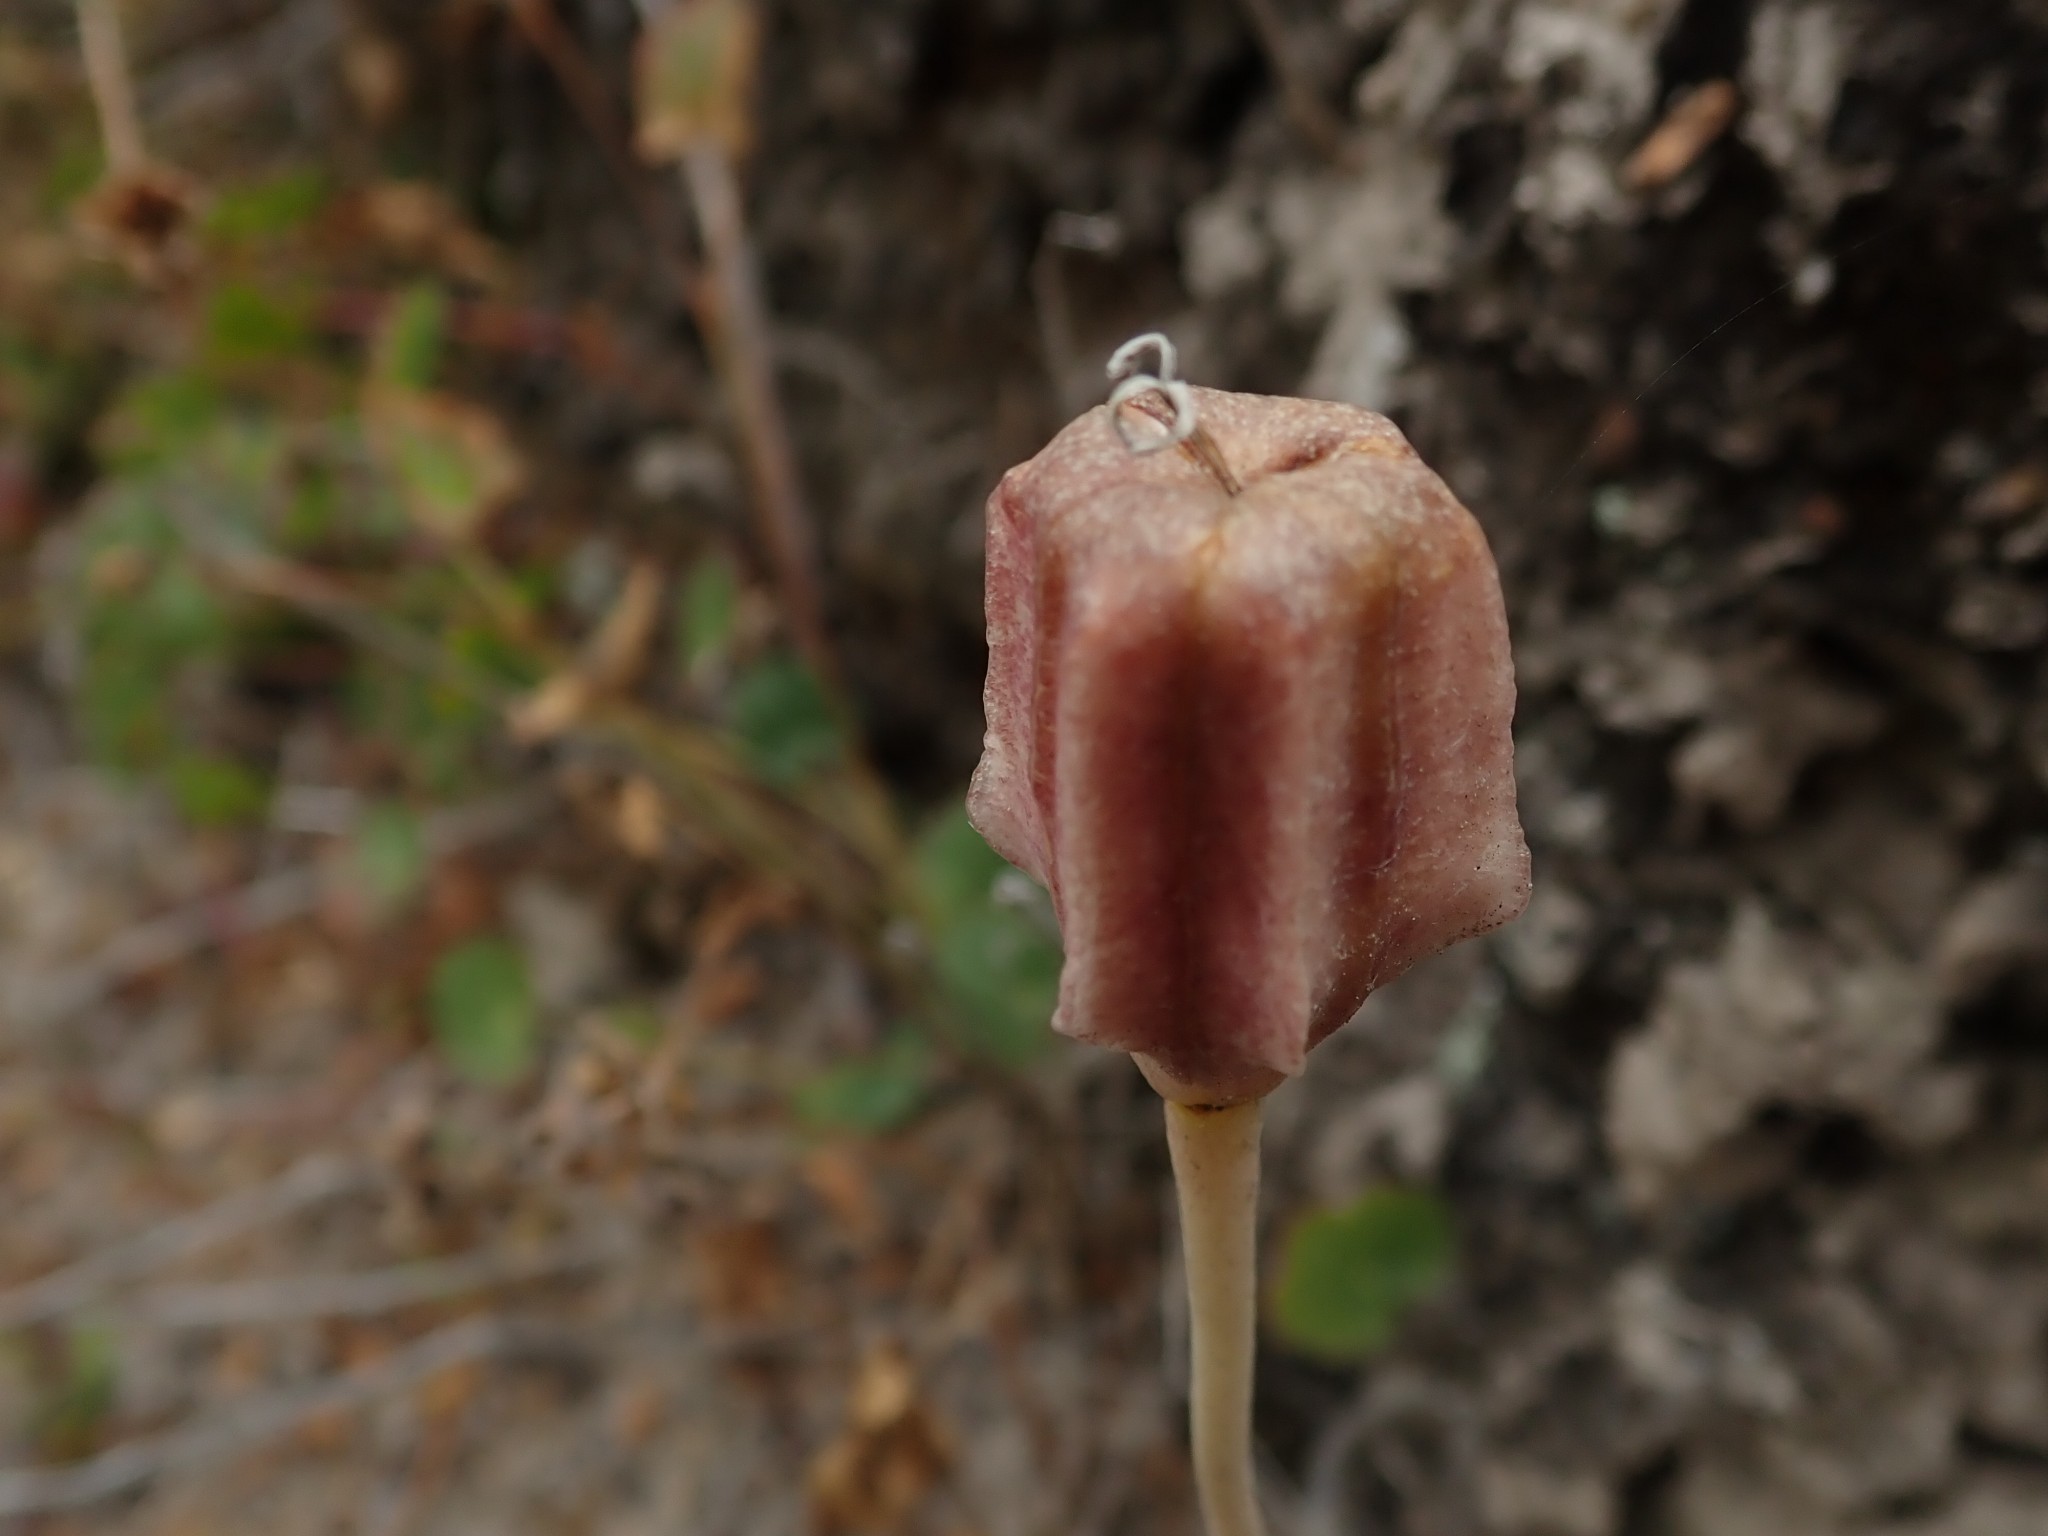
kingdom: Plantae
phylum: Tracheophyta
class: Liliopsida
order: Liliales
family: Liliaceae
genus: Fritillaria
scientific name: Fritillaria liliacea
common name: Fragrant fritillary
